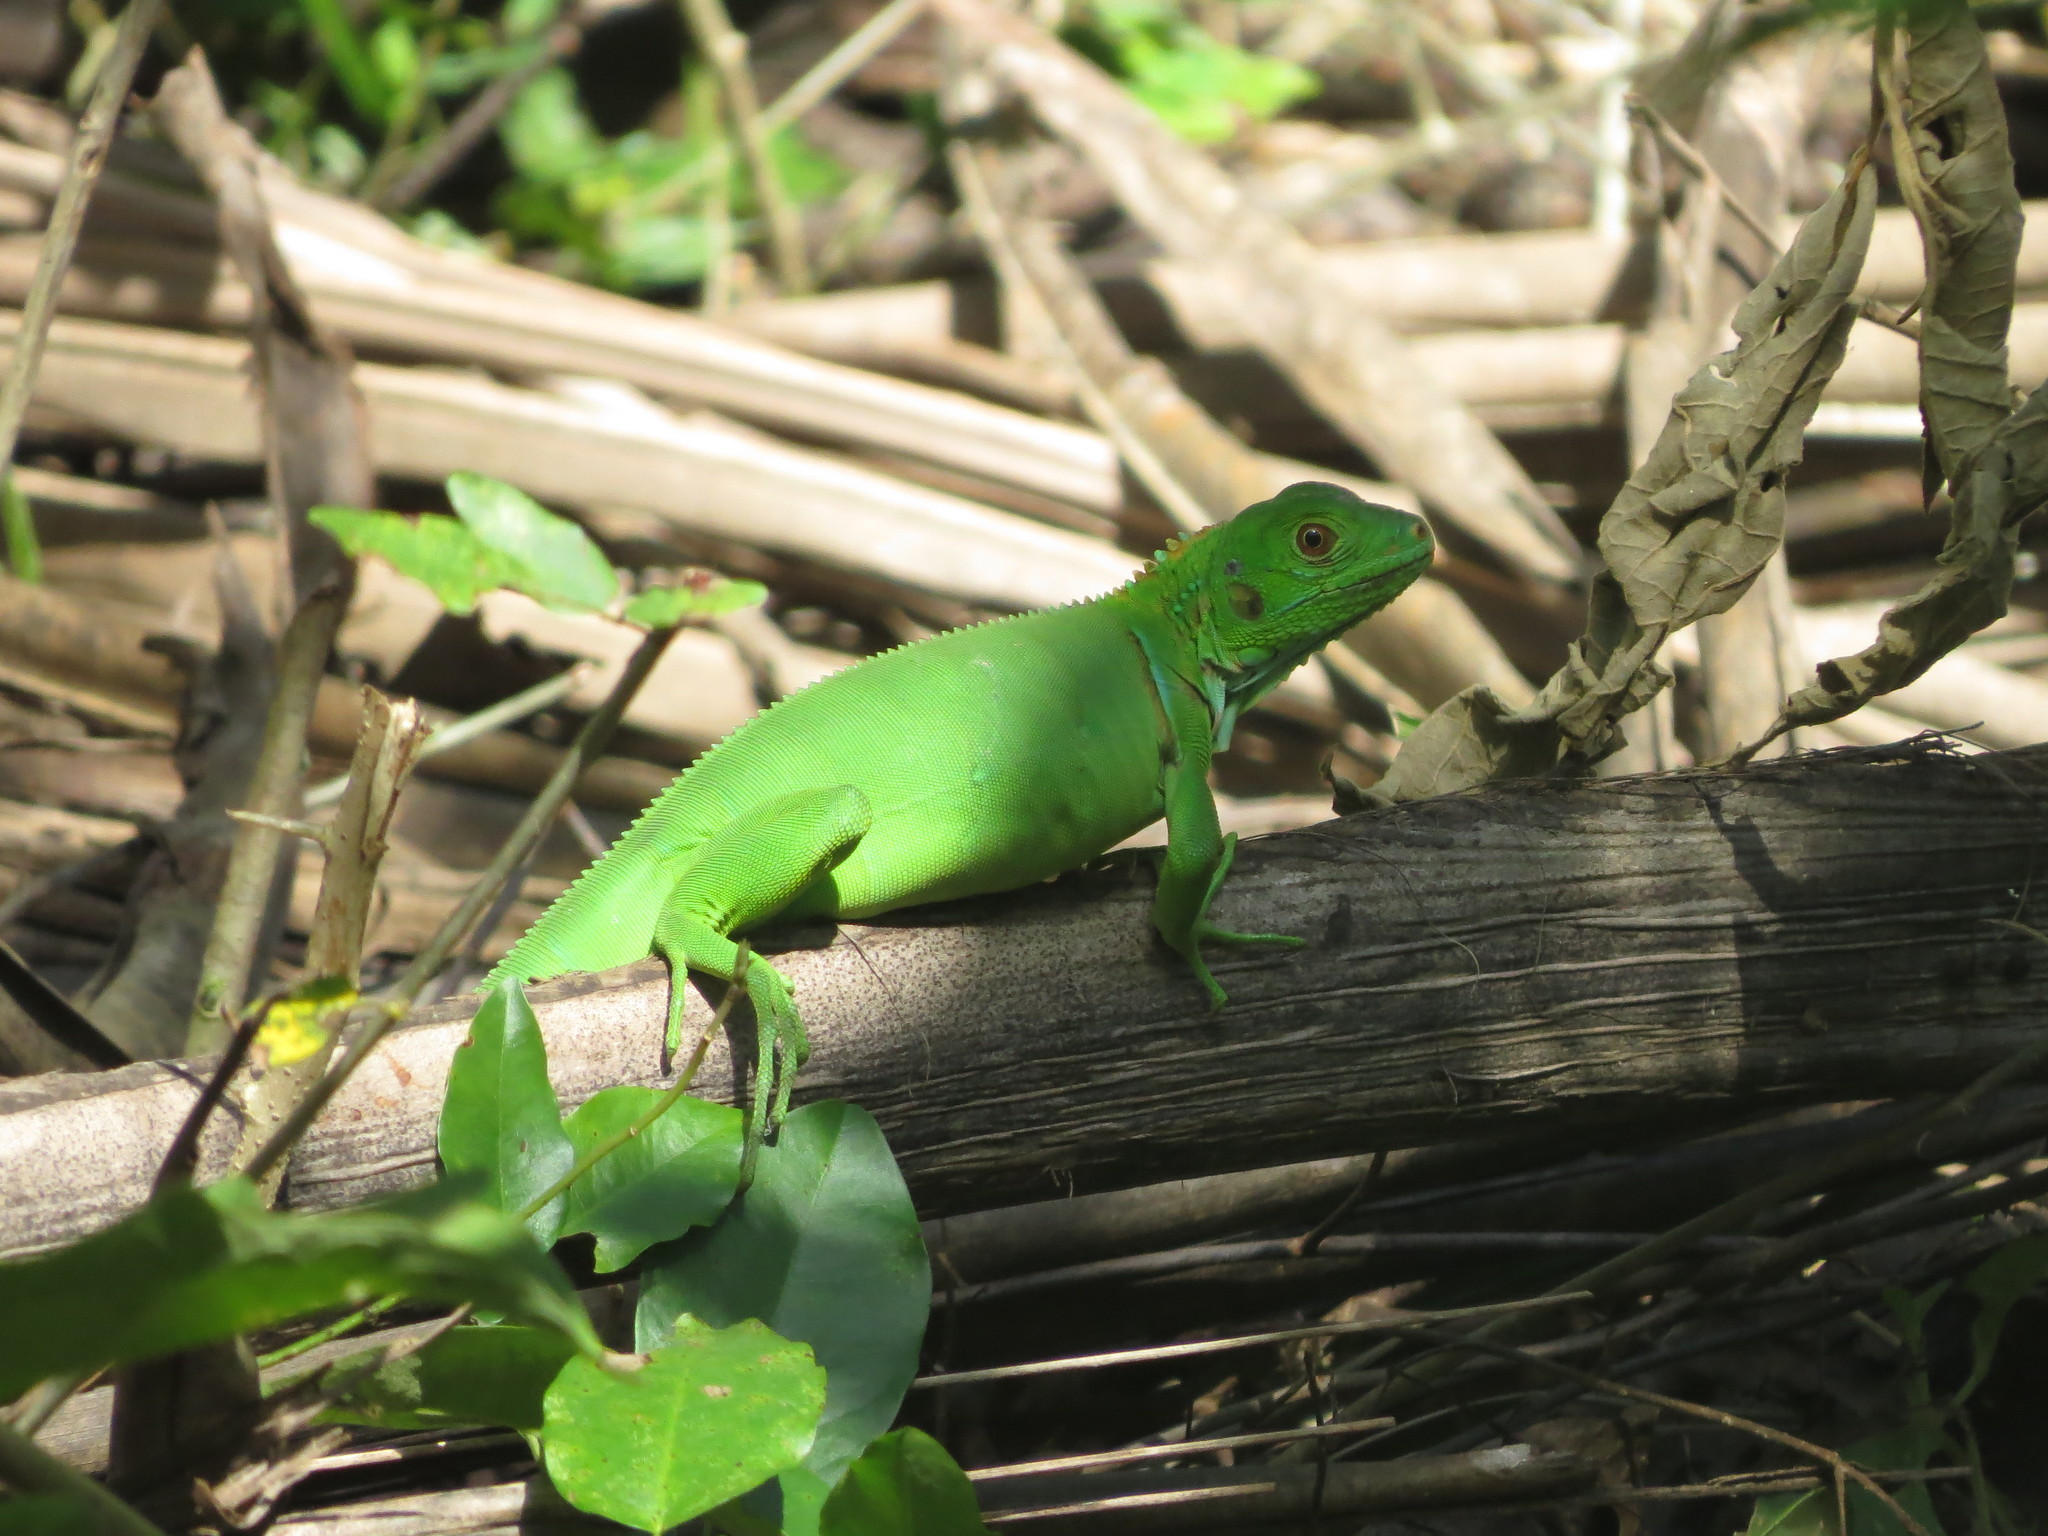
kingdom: Animalia
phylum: Chordata
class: Squamata
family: Iguanidae
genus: Iguana
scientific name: Iguana iguana
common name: Green iguana
